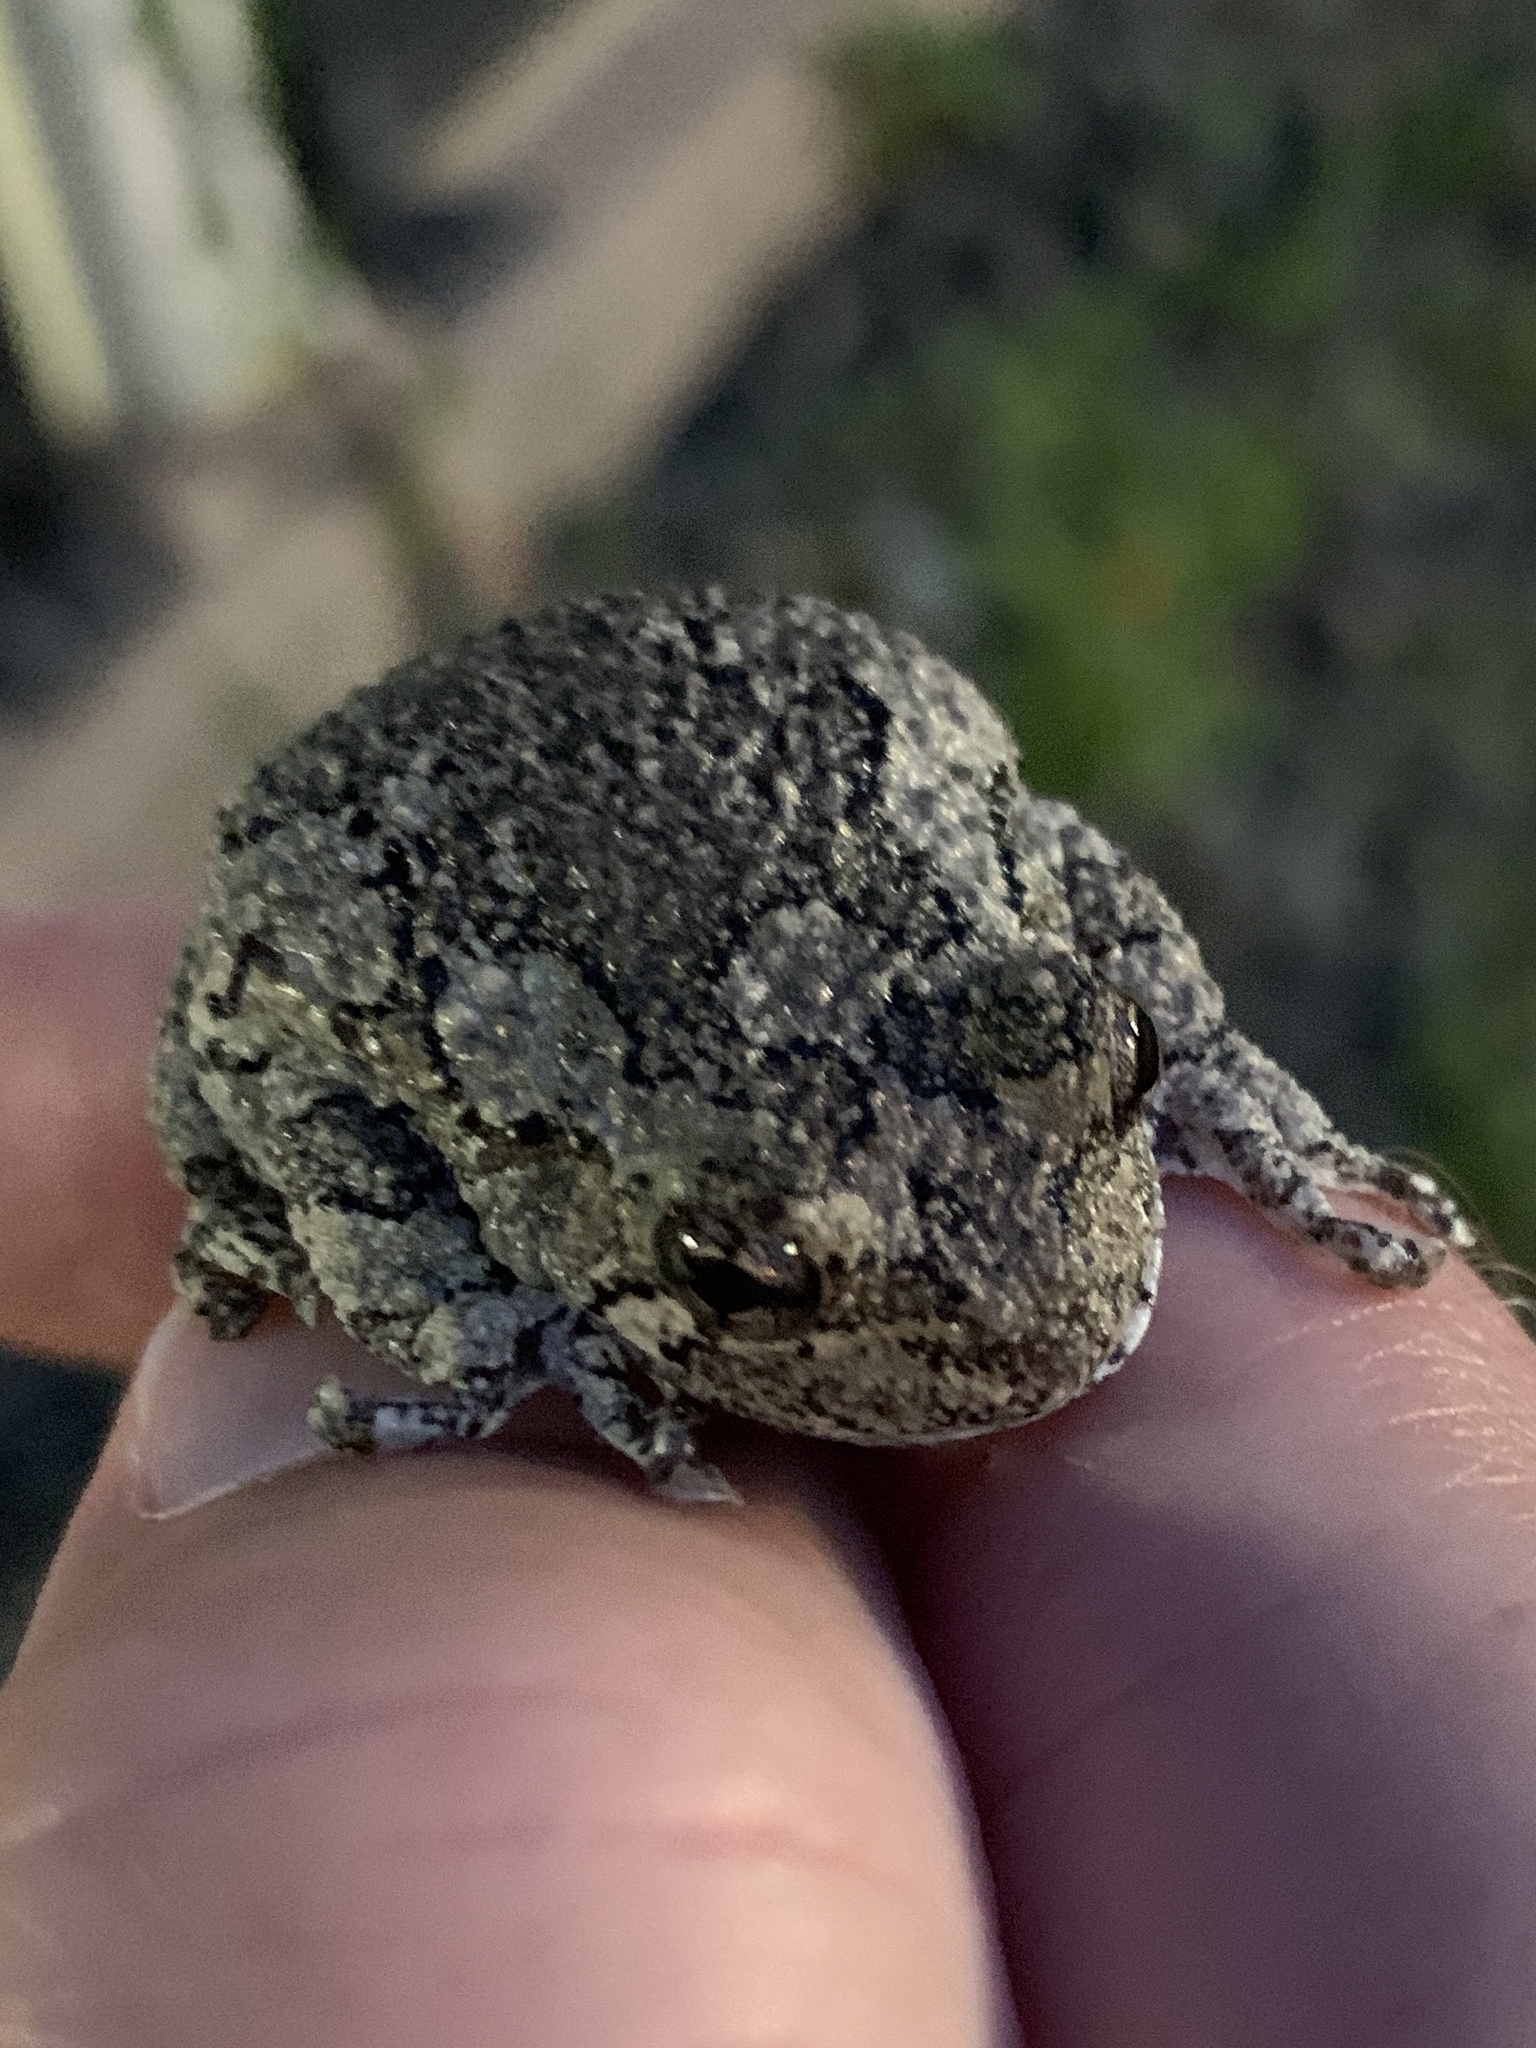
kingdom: Animalia
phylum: Chordata
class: Amphibia
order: Anura
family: Hylidae
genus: Dryophytes
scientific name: Dryophytes versicolor
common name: Gray treefrog
